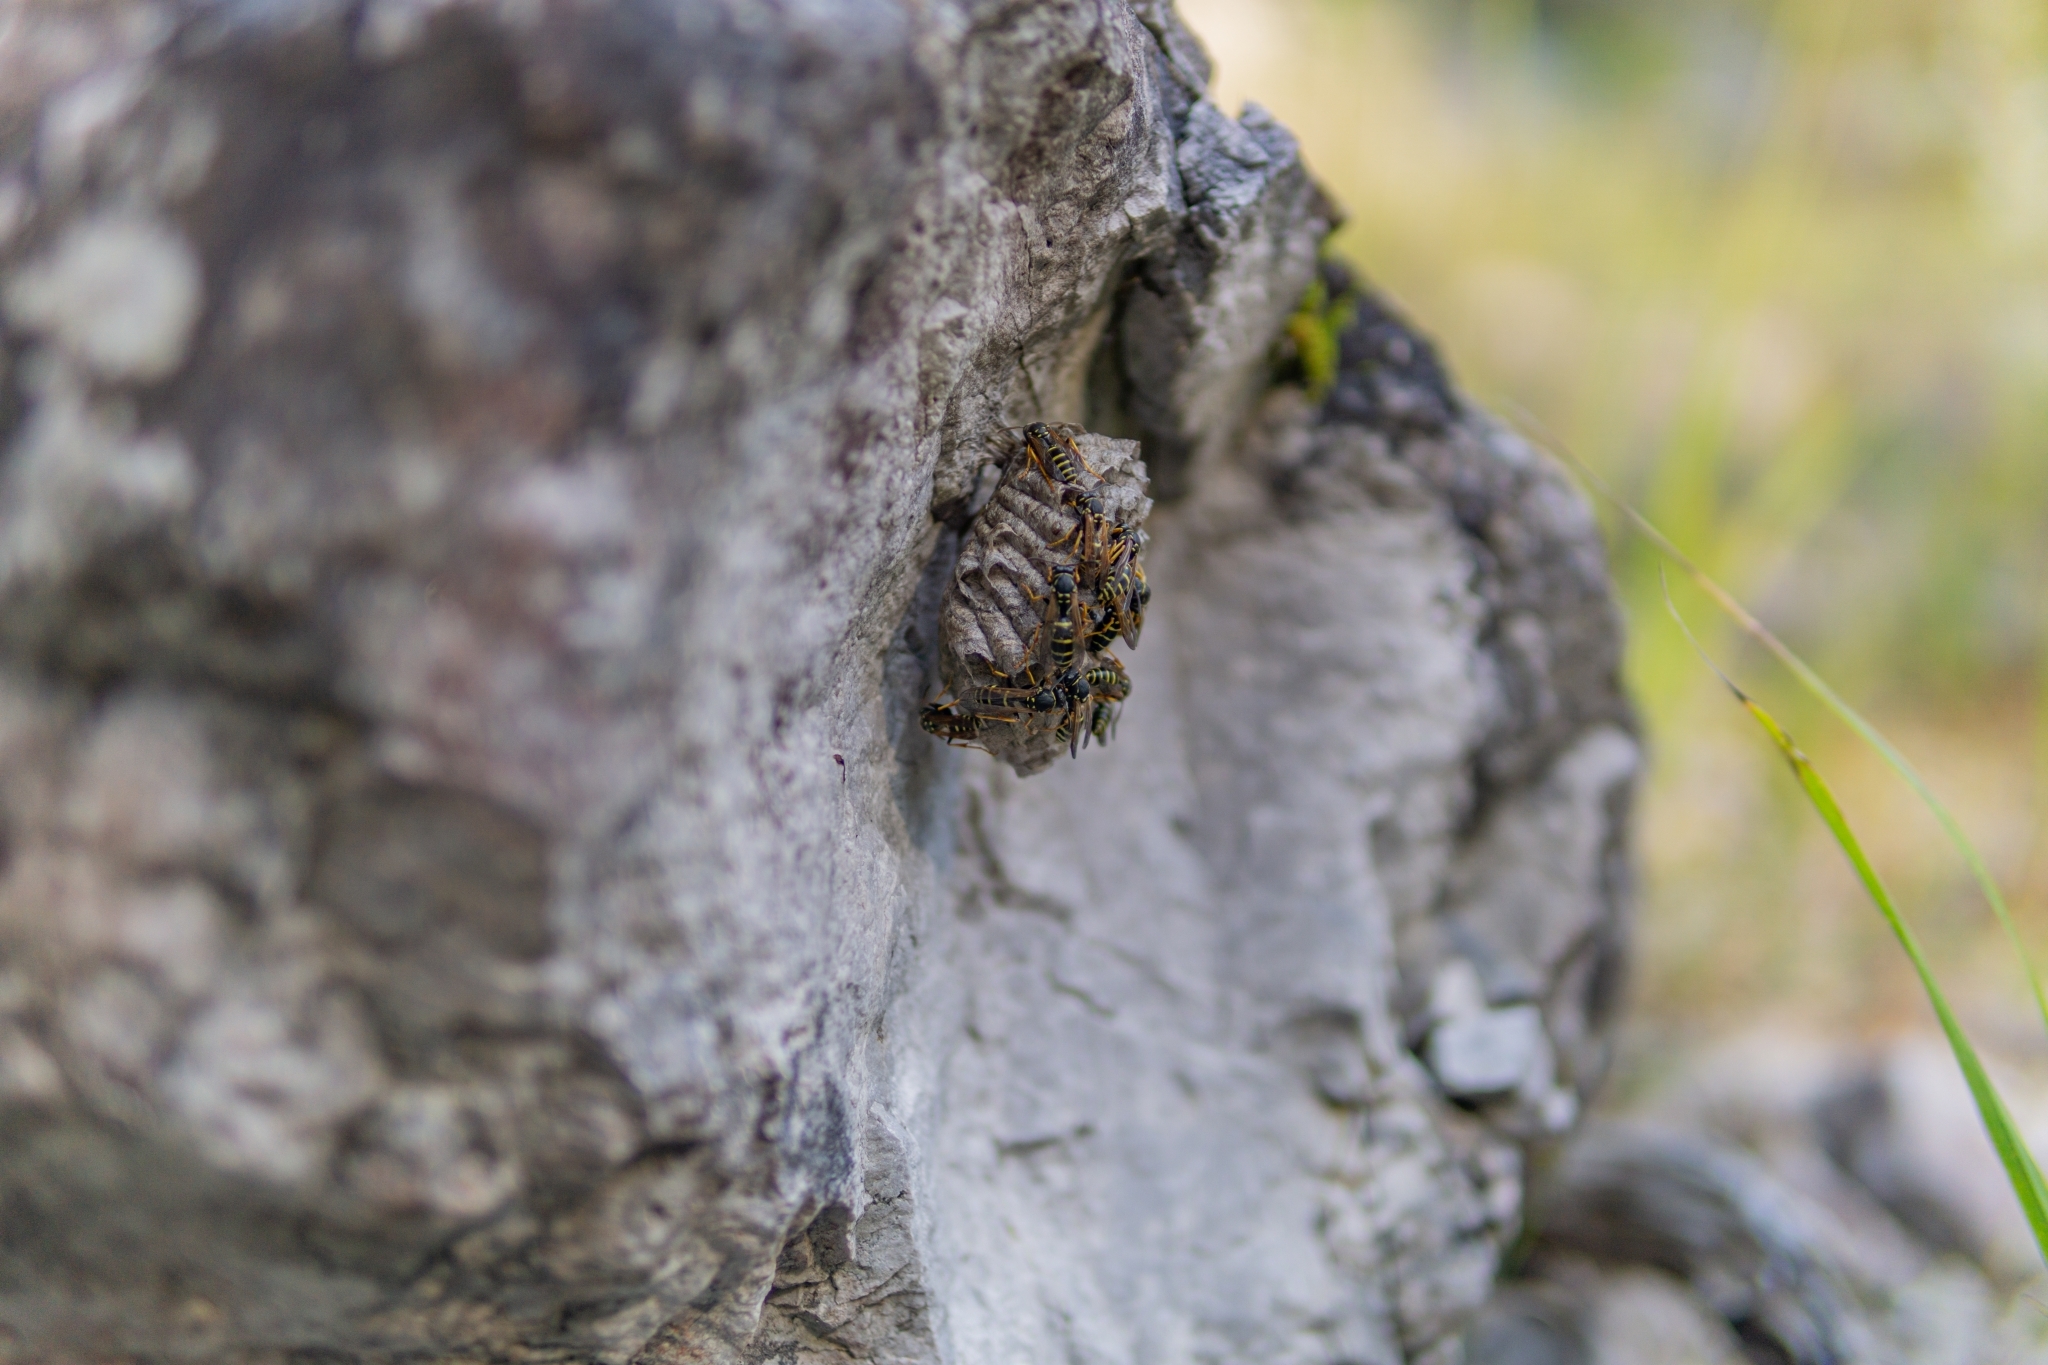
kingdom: Animalia
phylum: Arthropoda
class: Insecta
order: Hymenoptera
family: Eumenidae
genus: Polistes
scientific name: Polistes
